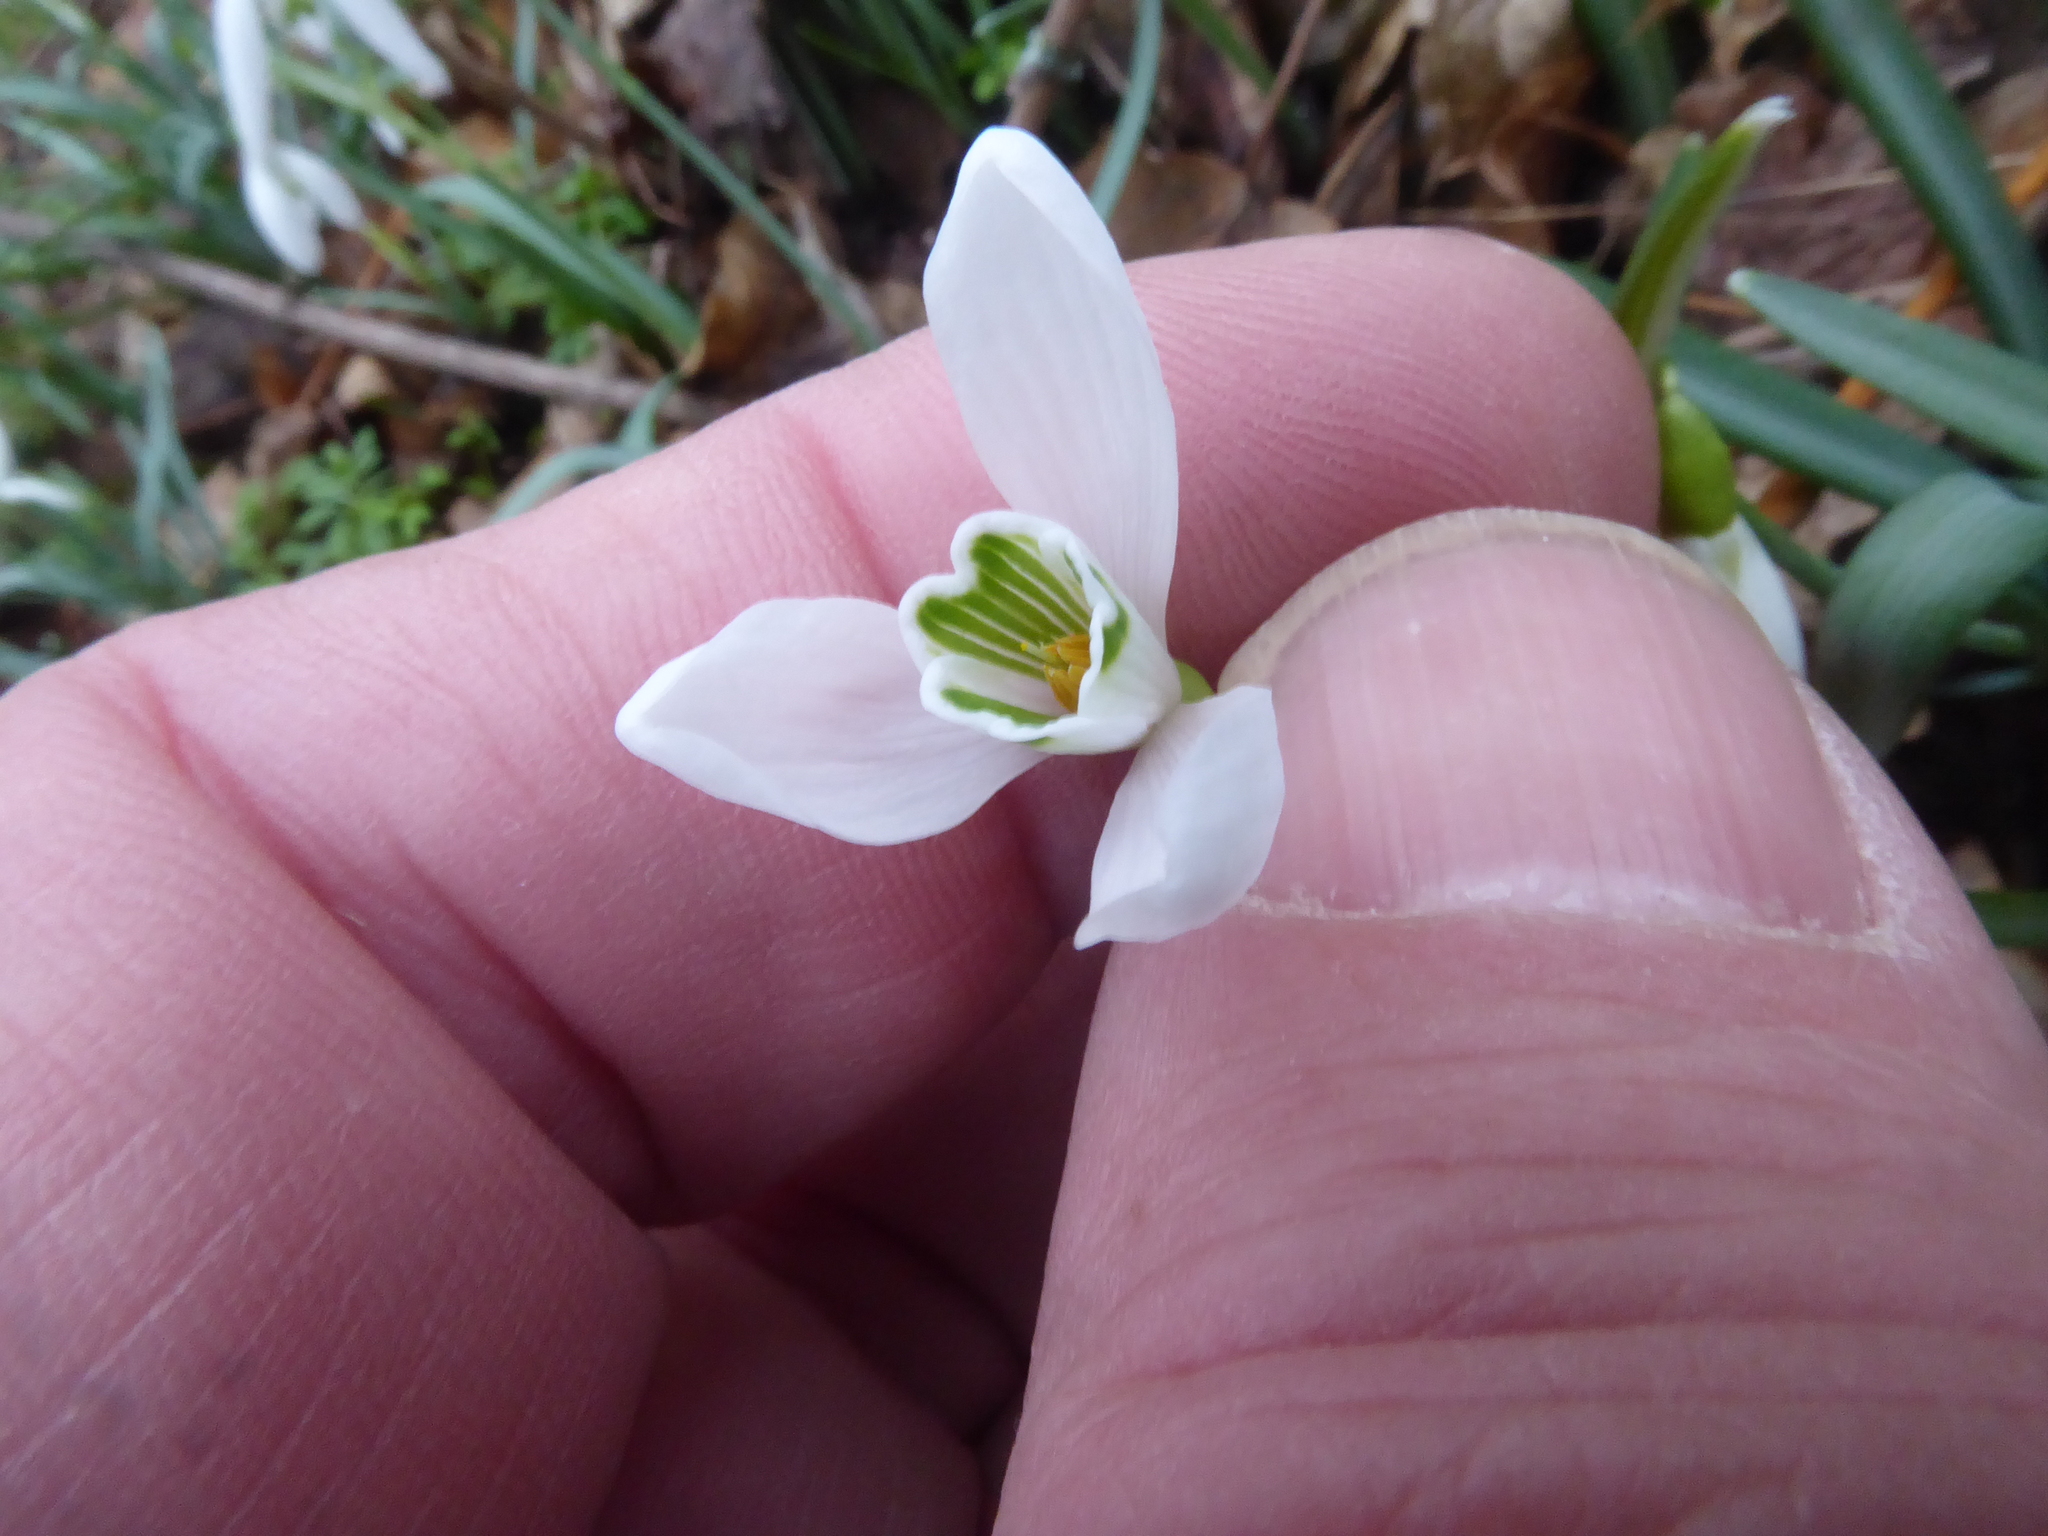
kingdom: Plantae
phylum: Tracheophyta
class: Liliopsida
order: Asparagales
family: Amaryllidaceae
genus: Galanthus
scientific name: Galanthus nivalis
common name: Snowdrop
